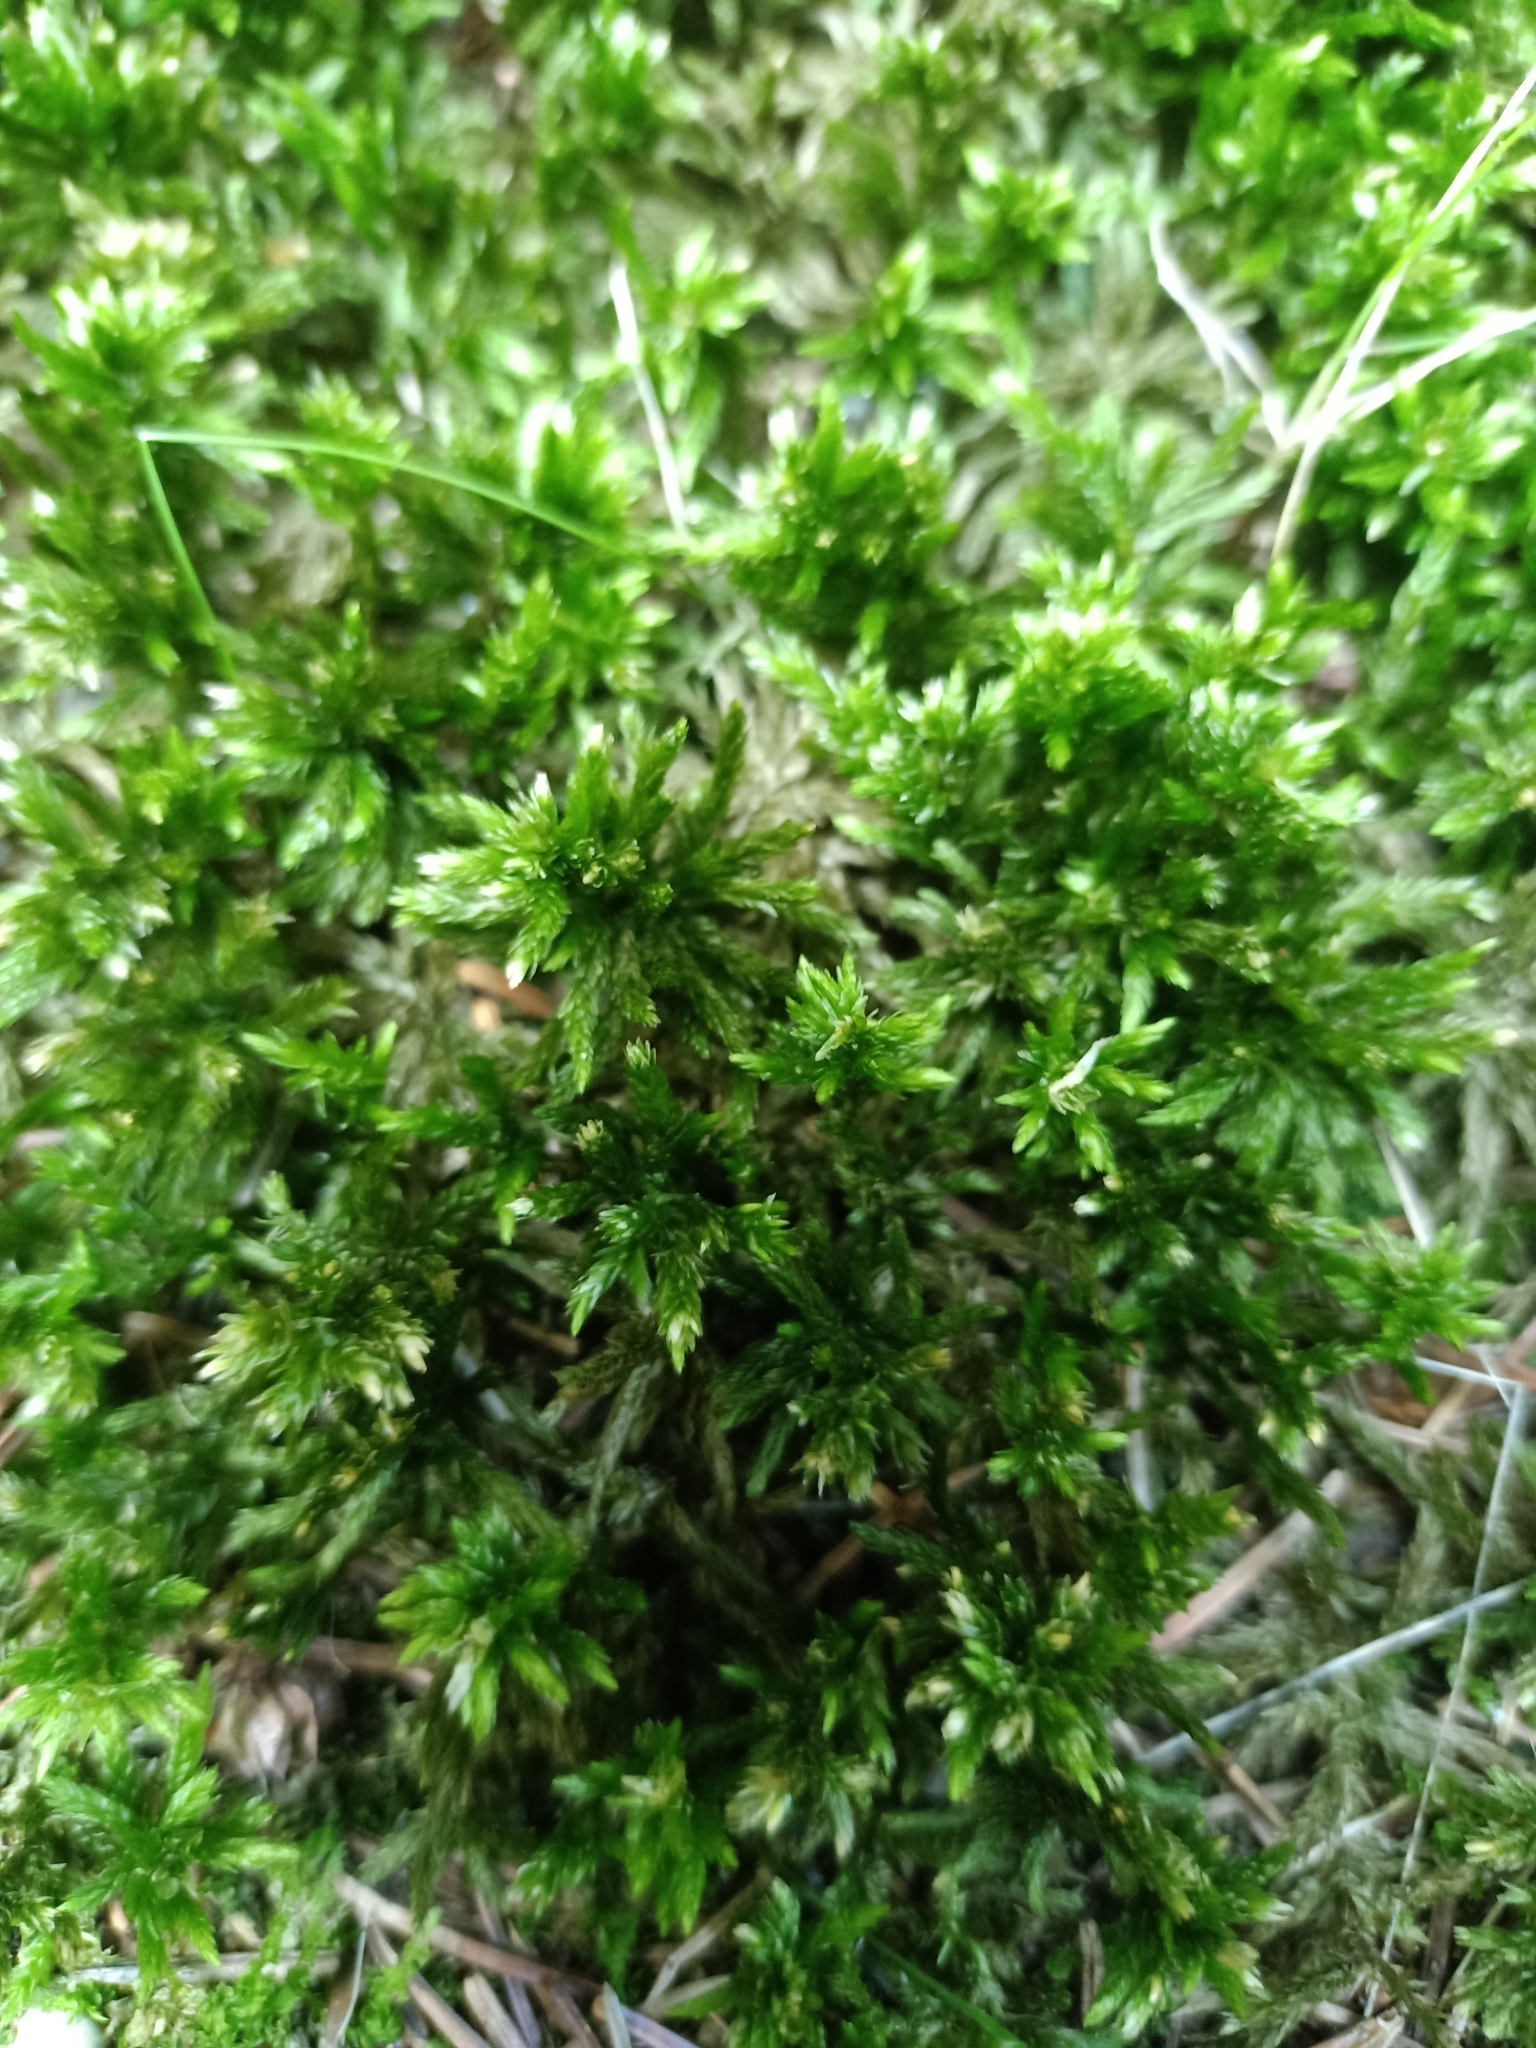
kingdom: Plantae
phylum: Bryophyta
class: Bryopsida
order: Hypnales
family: Climaciaceae
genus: Climacium
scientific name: Climacium dendroides
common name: Northern tree moss
